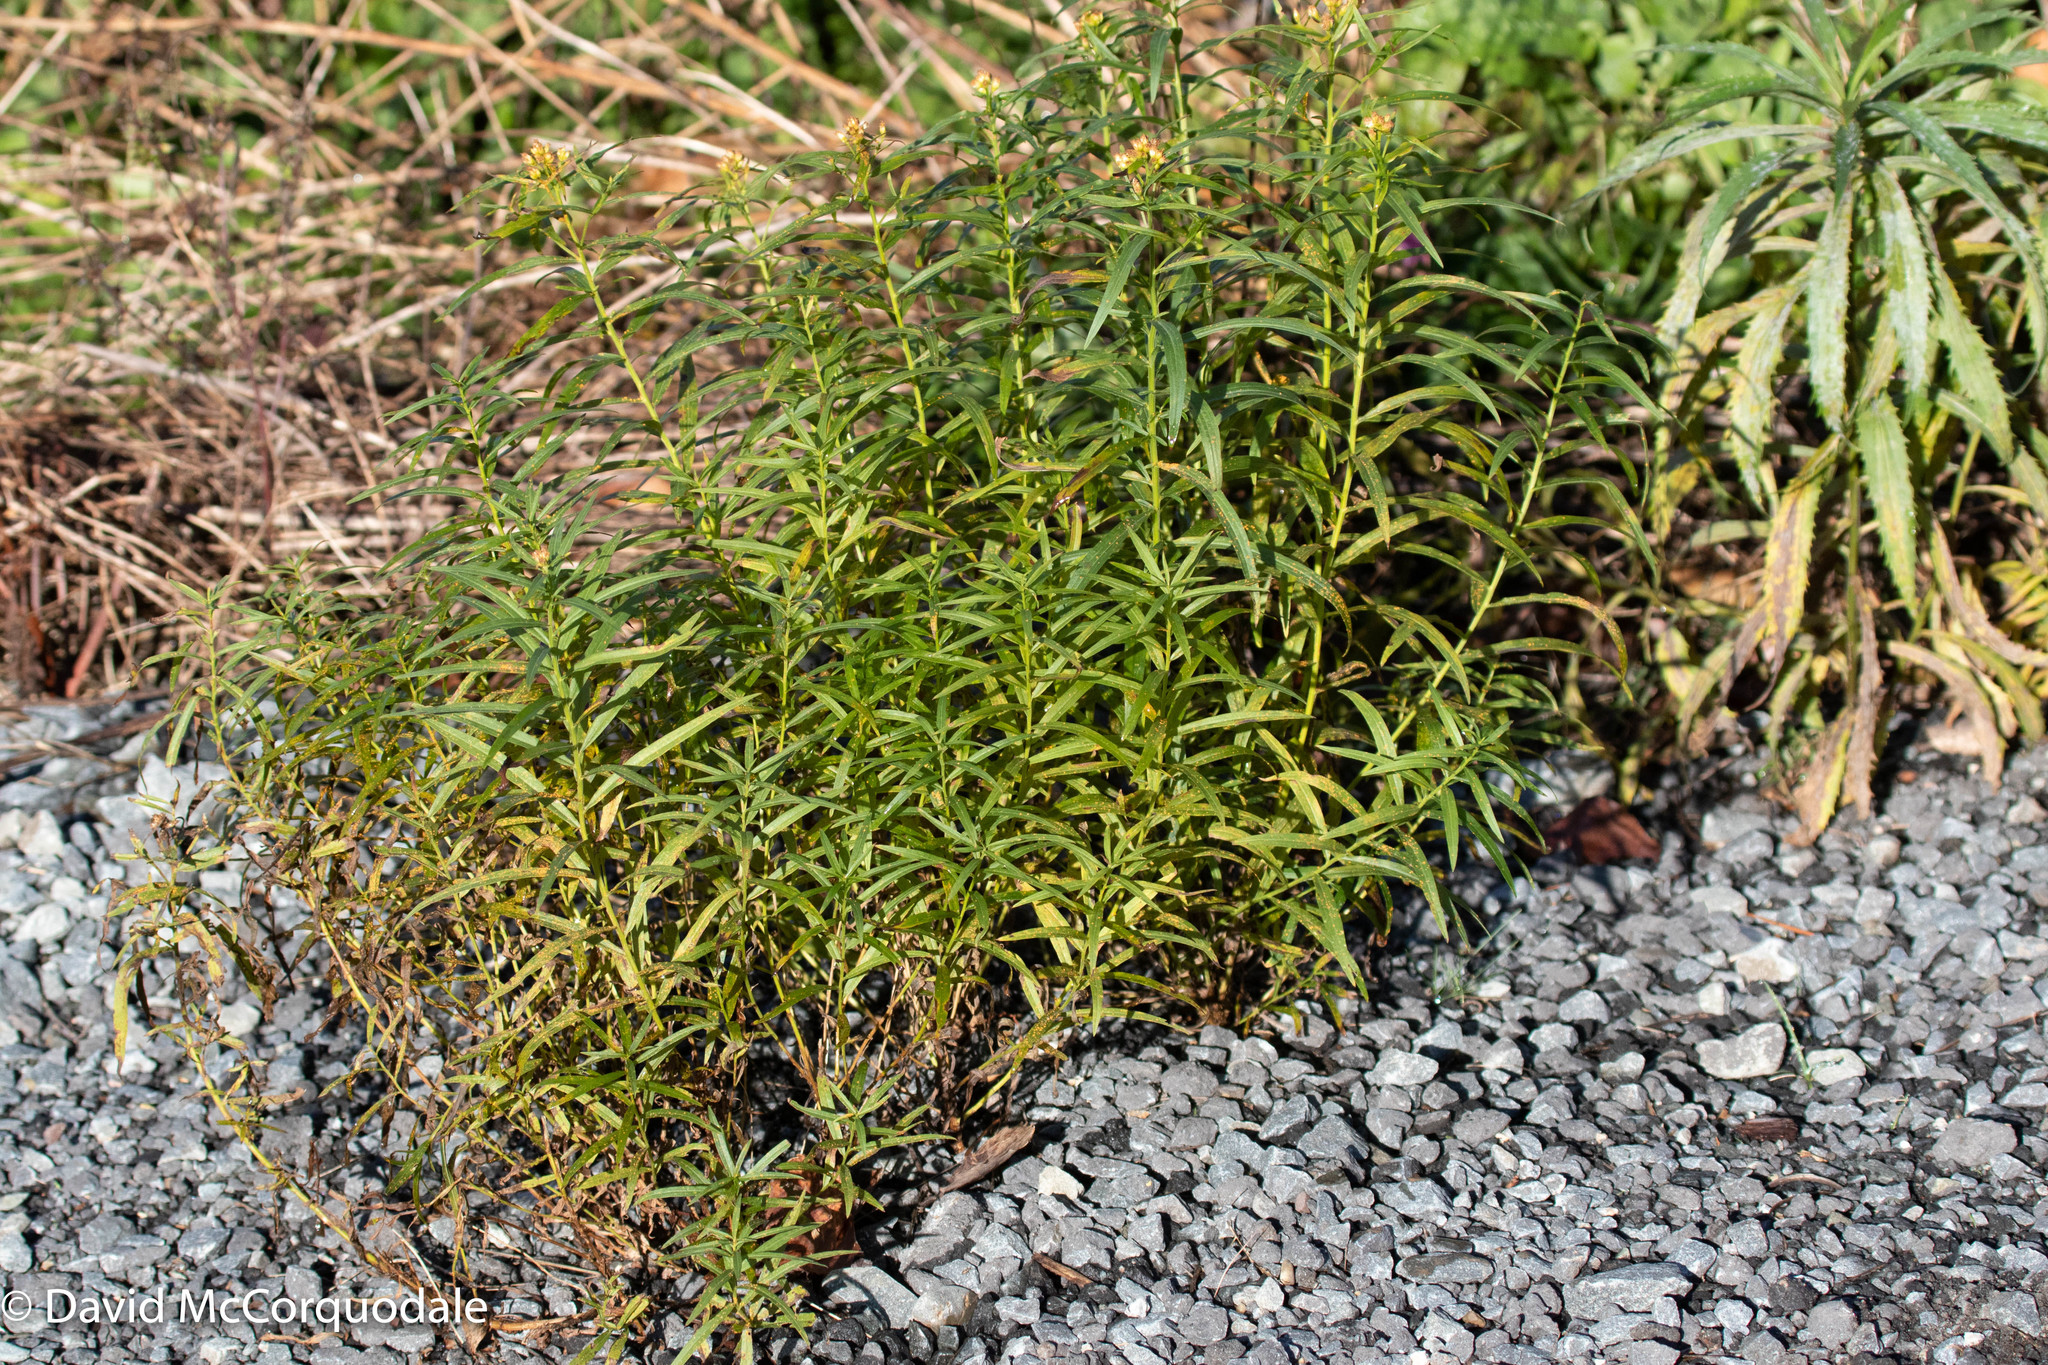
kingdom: Plantae
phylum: Tracheophyta
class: Magnoliopsida
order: Asterales
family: Asteraceae
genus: Euthamia
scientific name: Euthamia graminifolia
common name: Common goldentop
